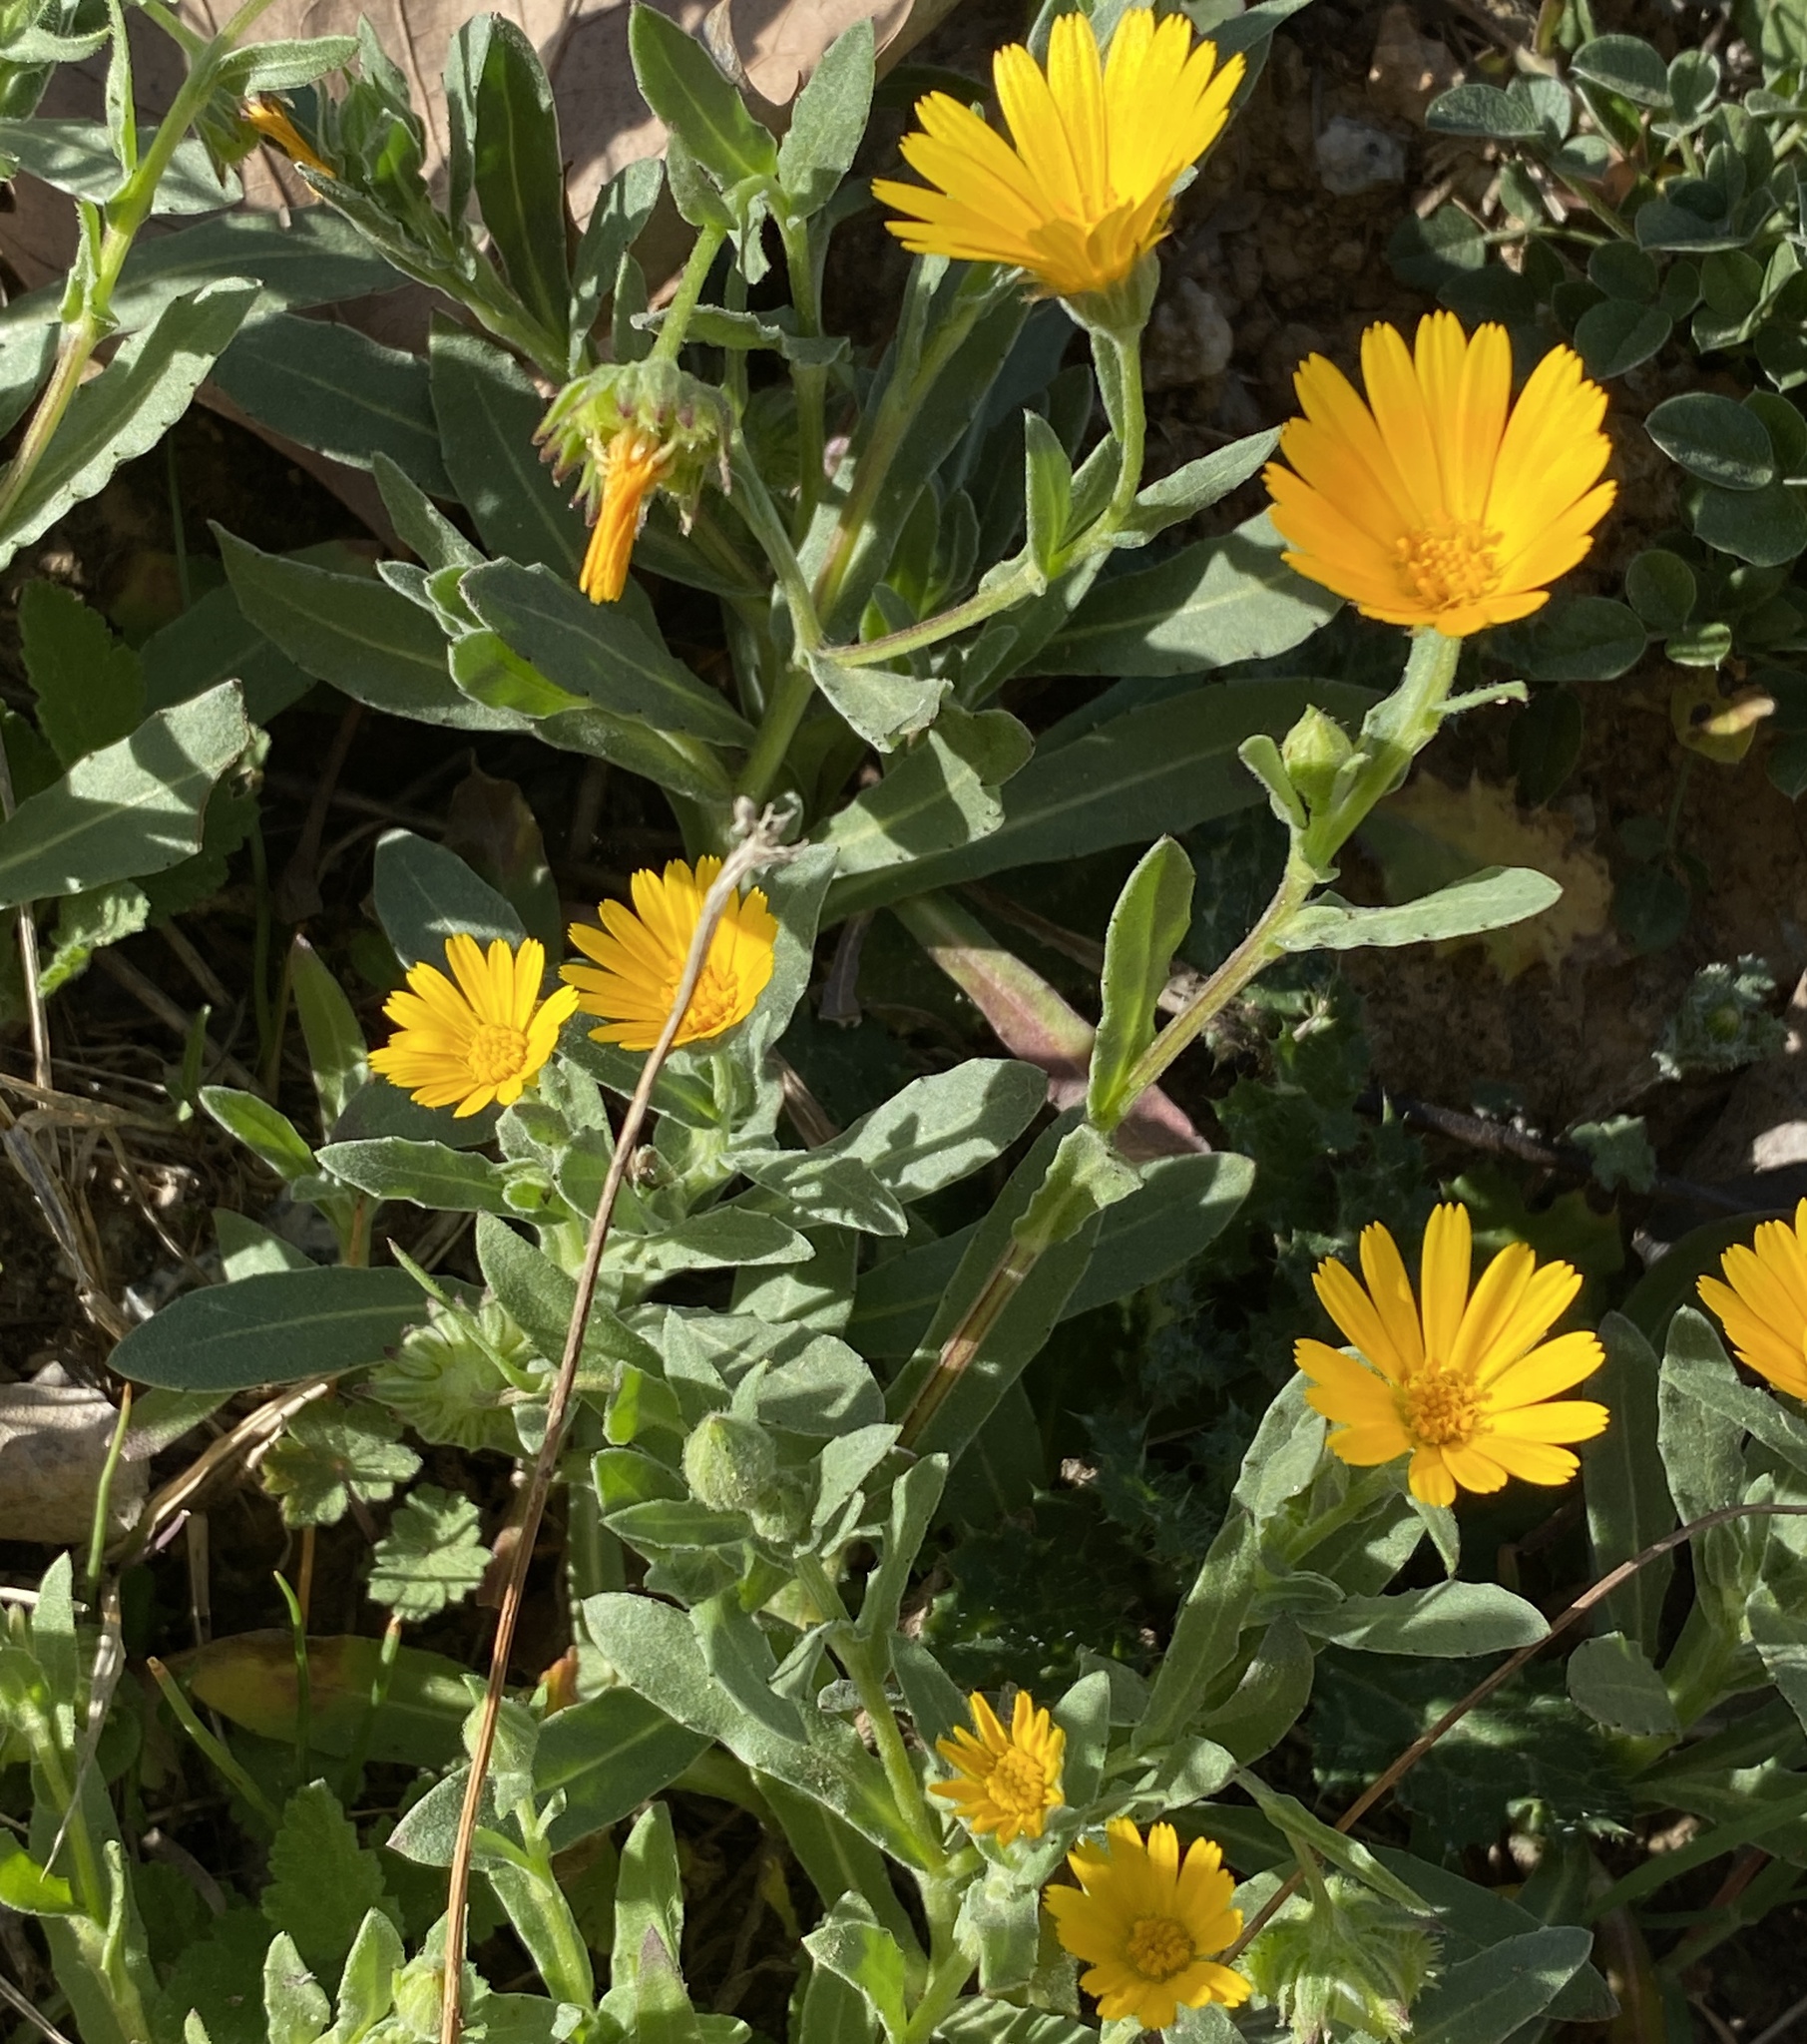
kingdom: Plantae
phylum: Tracheophyta
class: Magnoliopsida
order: Asterales
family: Asteraceae
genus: Calendula
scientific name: Calendula arvensis
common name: Field marigold
